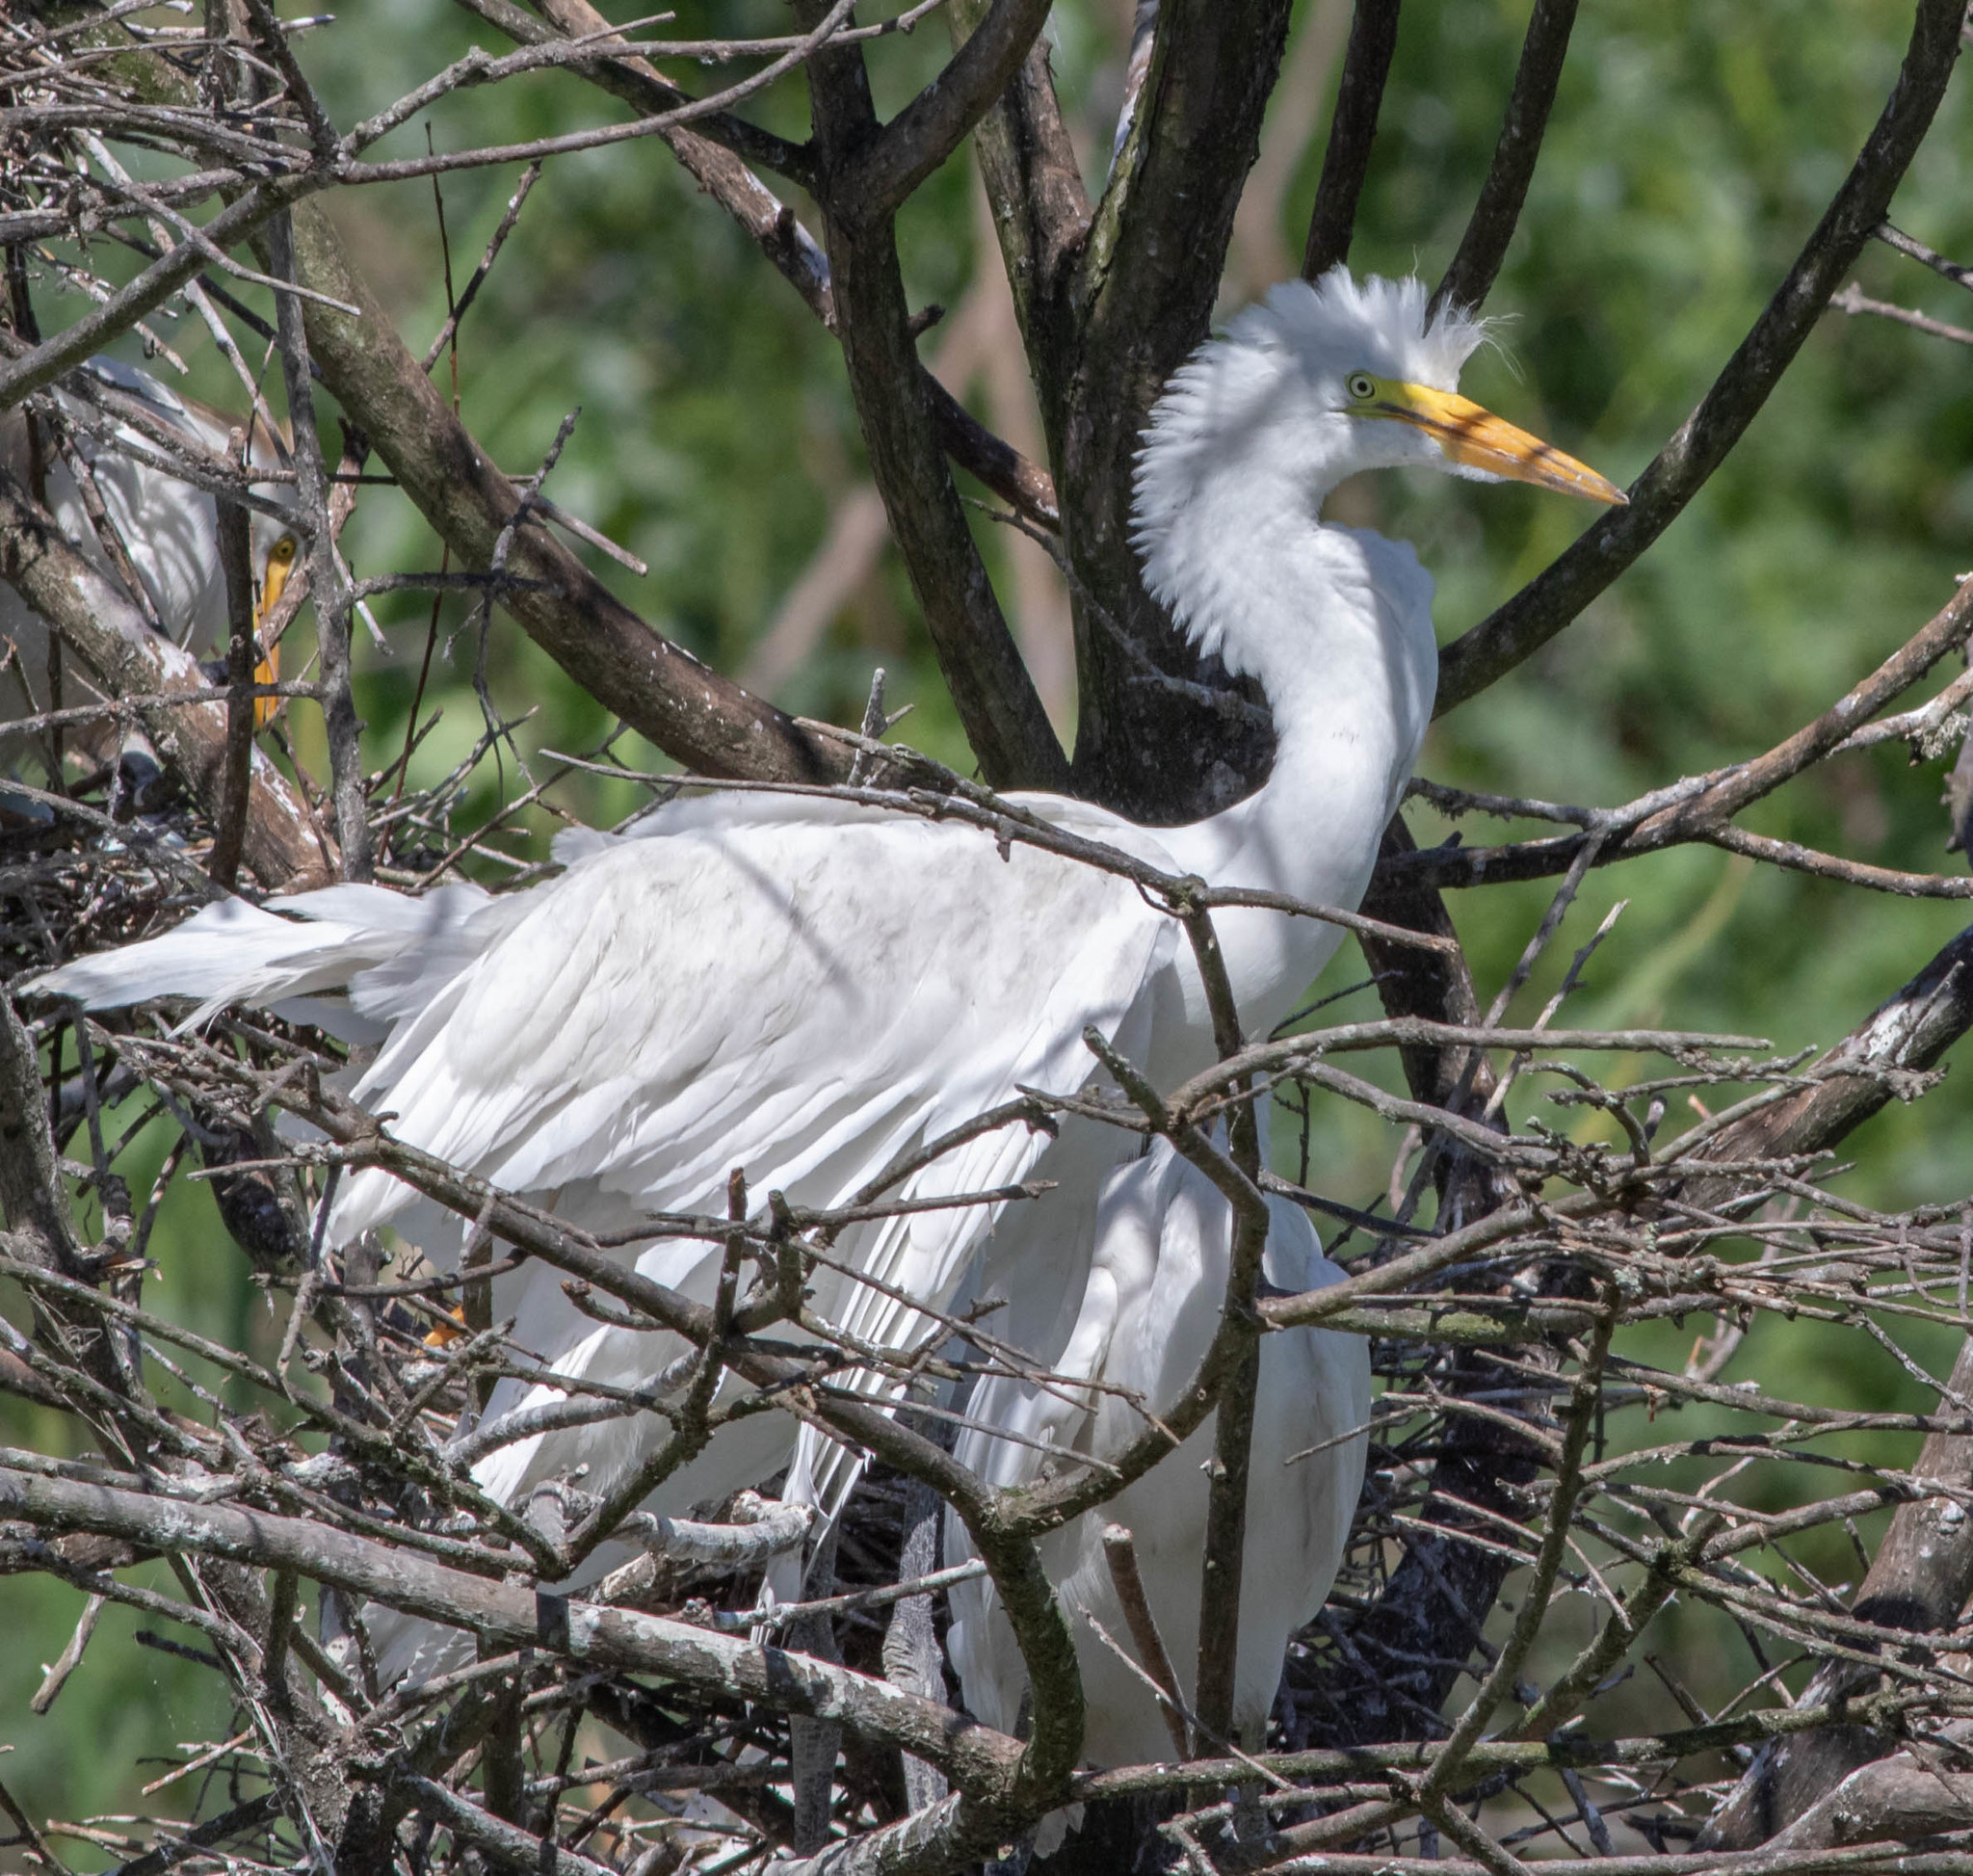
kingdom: Animalia
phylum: Chordata
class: Aves
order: Pelecaniformes
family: Ardeidae
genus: Ardea
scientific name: Ardea alba
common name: Great egret
